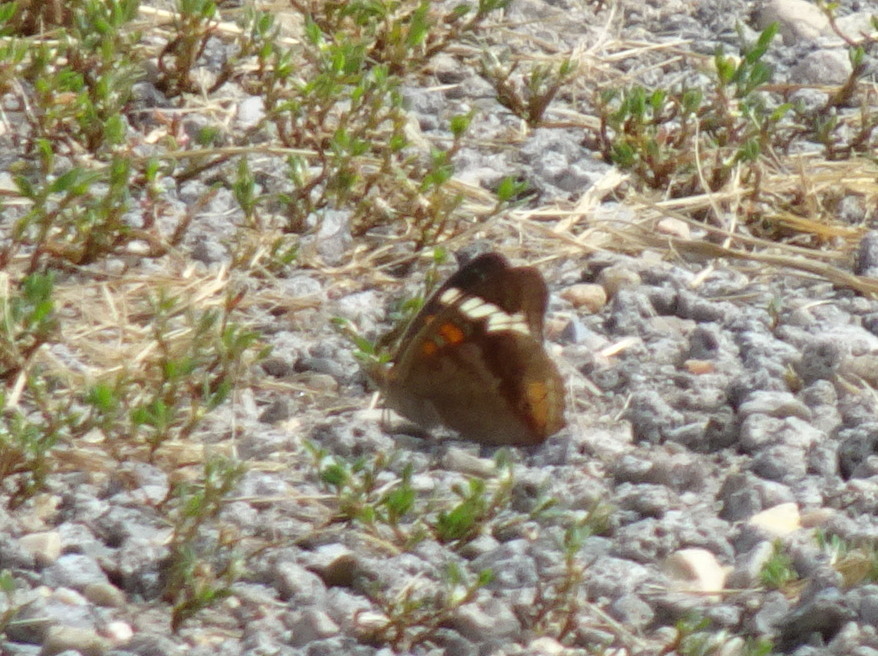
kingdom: Animalia
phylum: Arthropoda
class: Insecta
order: Lepidoptera
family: Nymphalidae
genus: Junonia
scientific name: Junonia coenia
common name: Common buckeye
